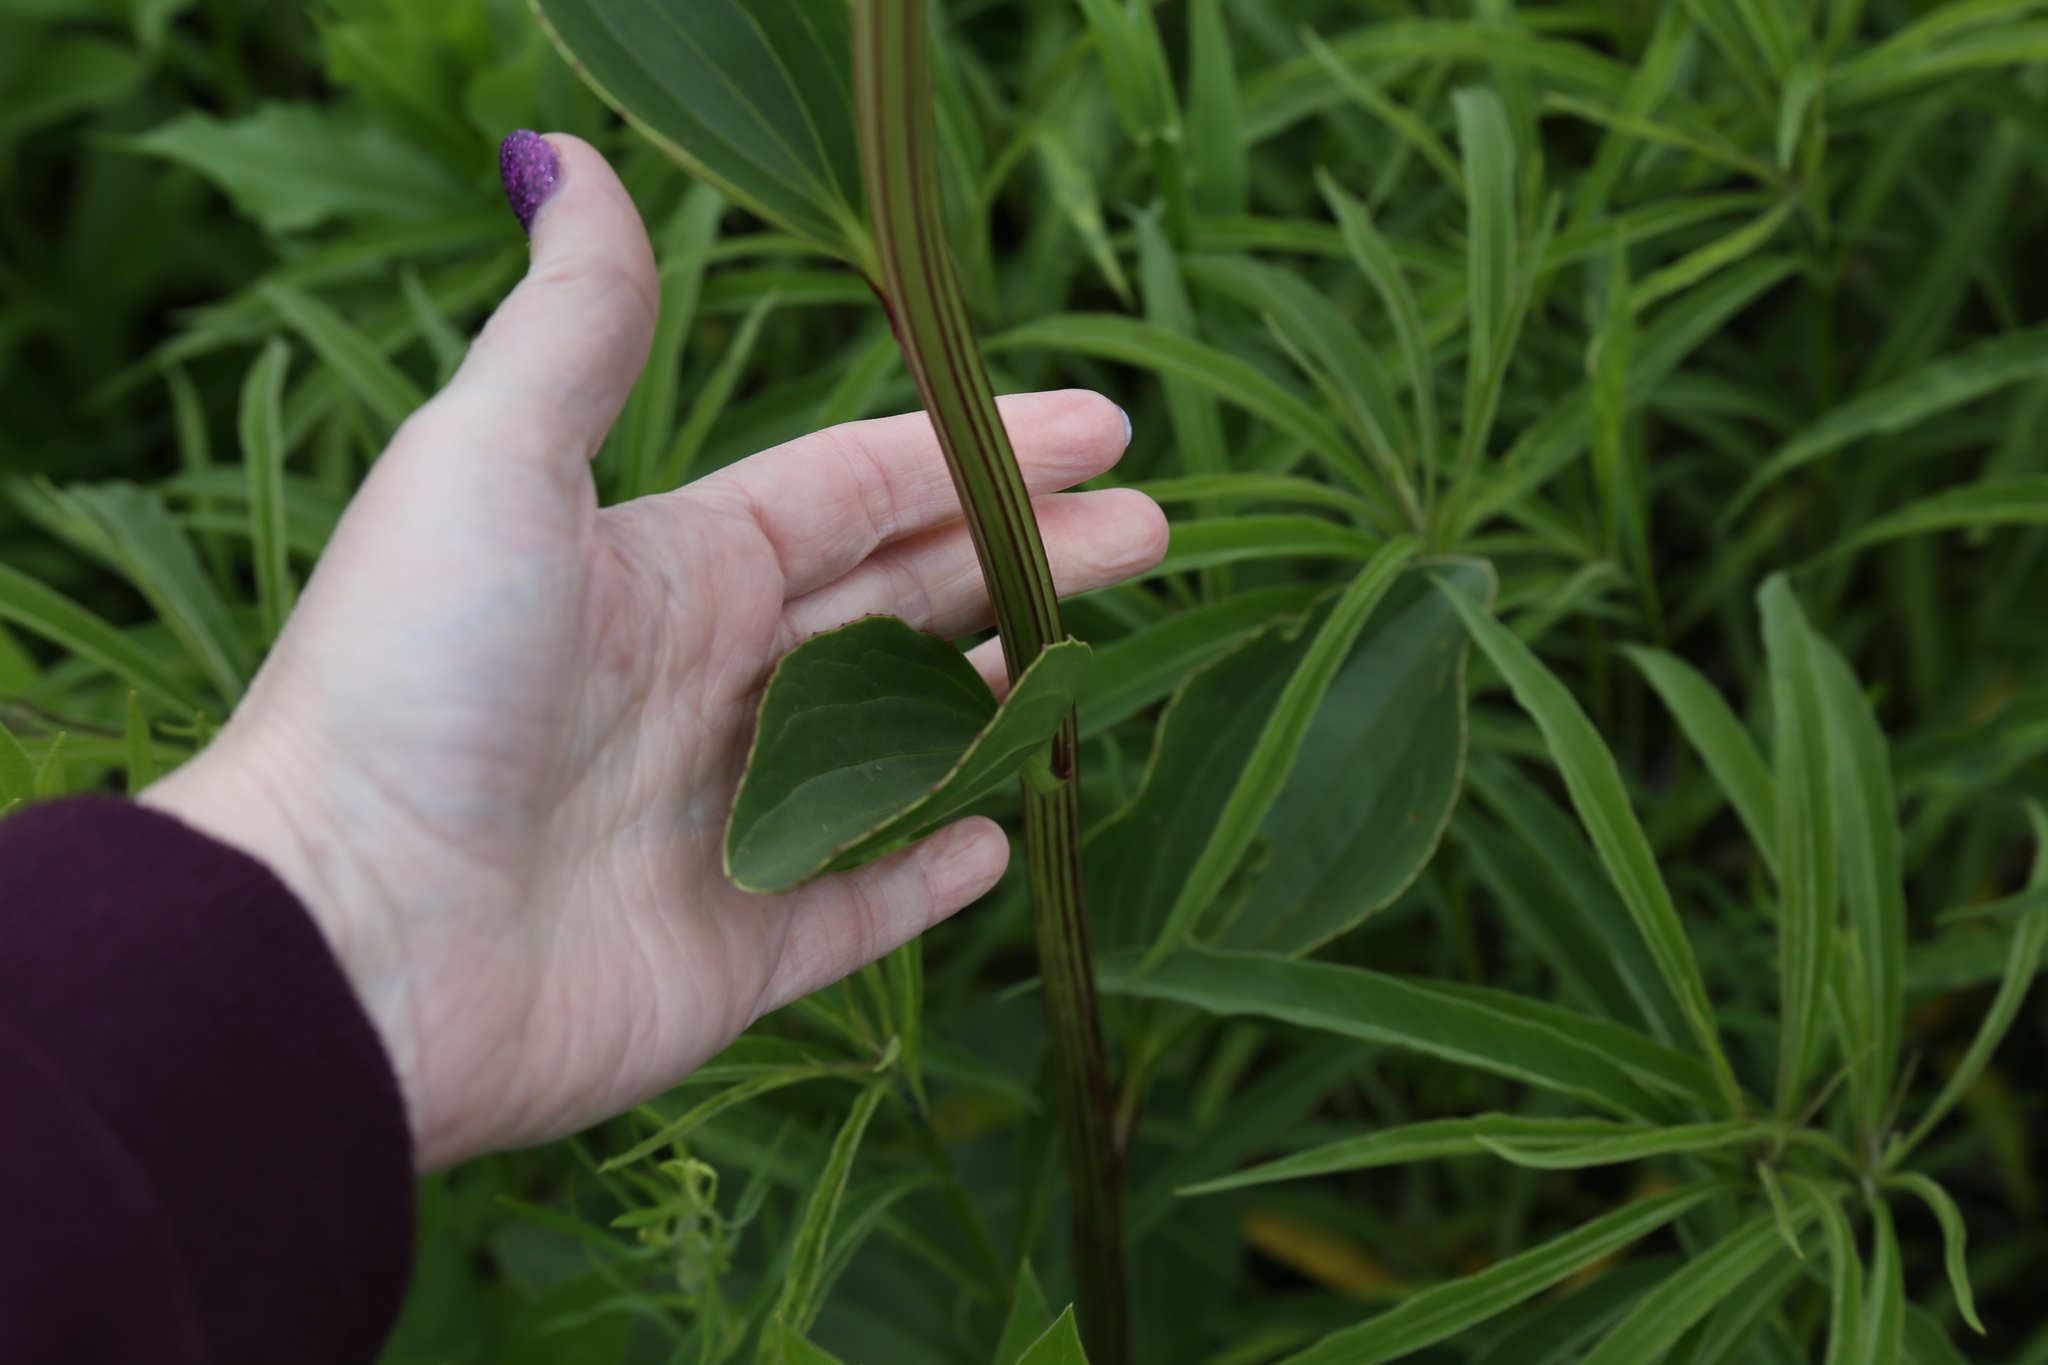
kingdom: Plantae
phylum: Tracheophyta
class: Magnoliopsida
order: Asterales
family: Asteraceae
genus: Arnoglossum
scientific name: Arnoglossum plantagineum
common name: Groove-stemmed indian-plantain
